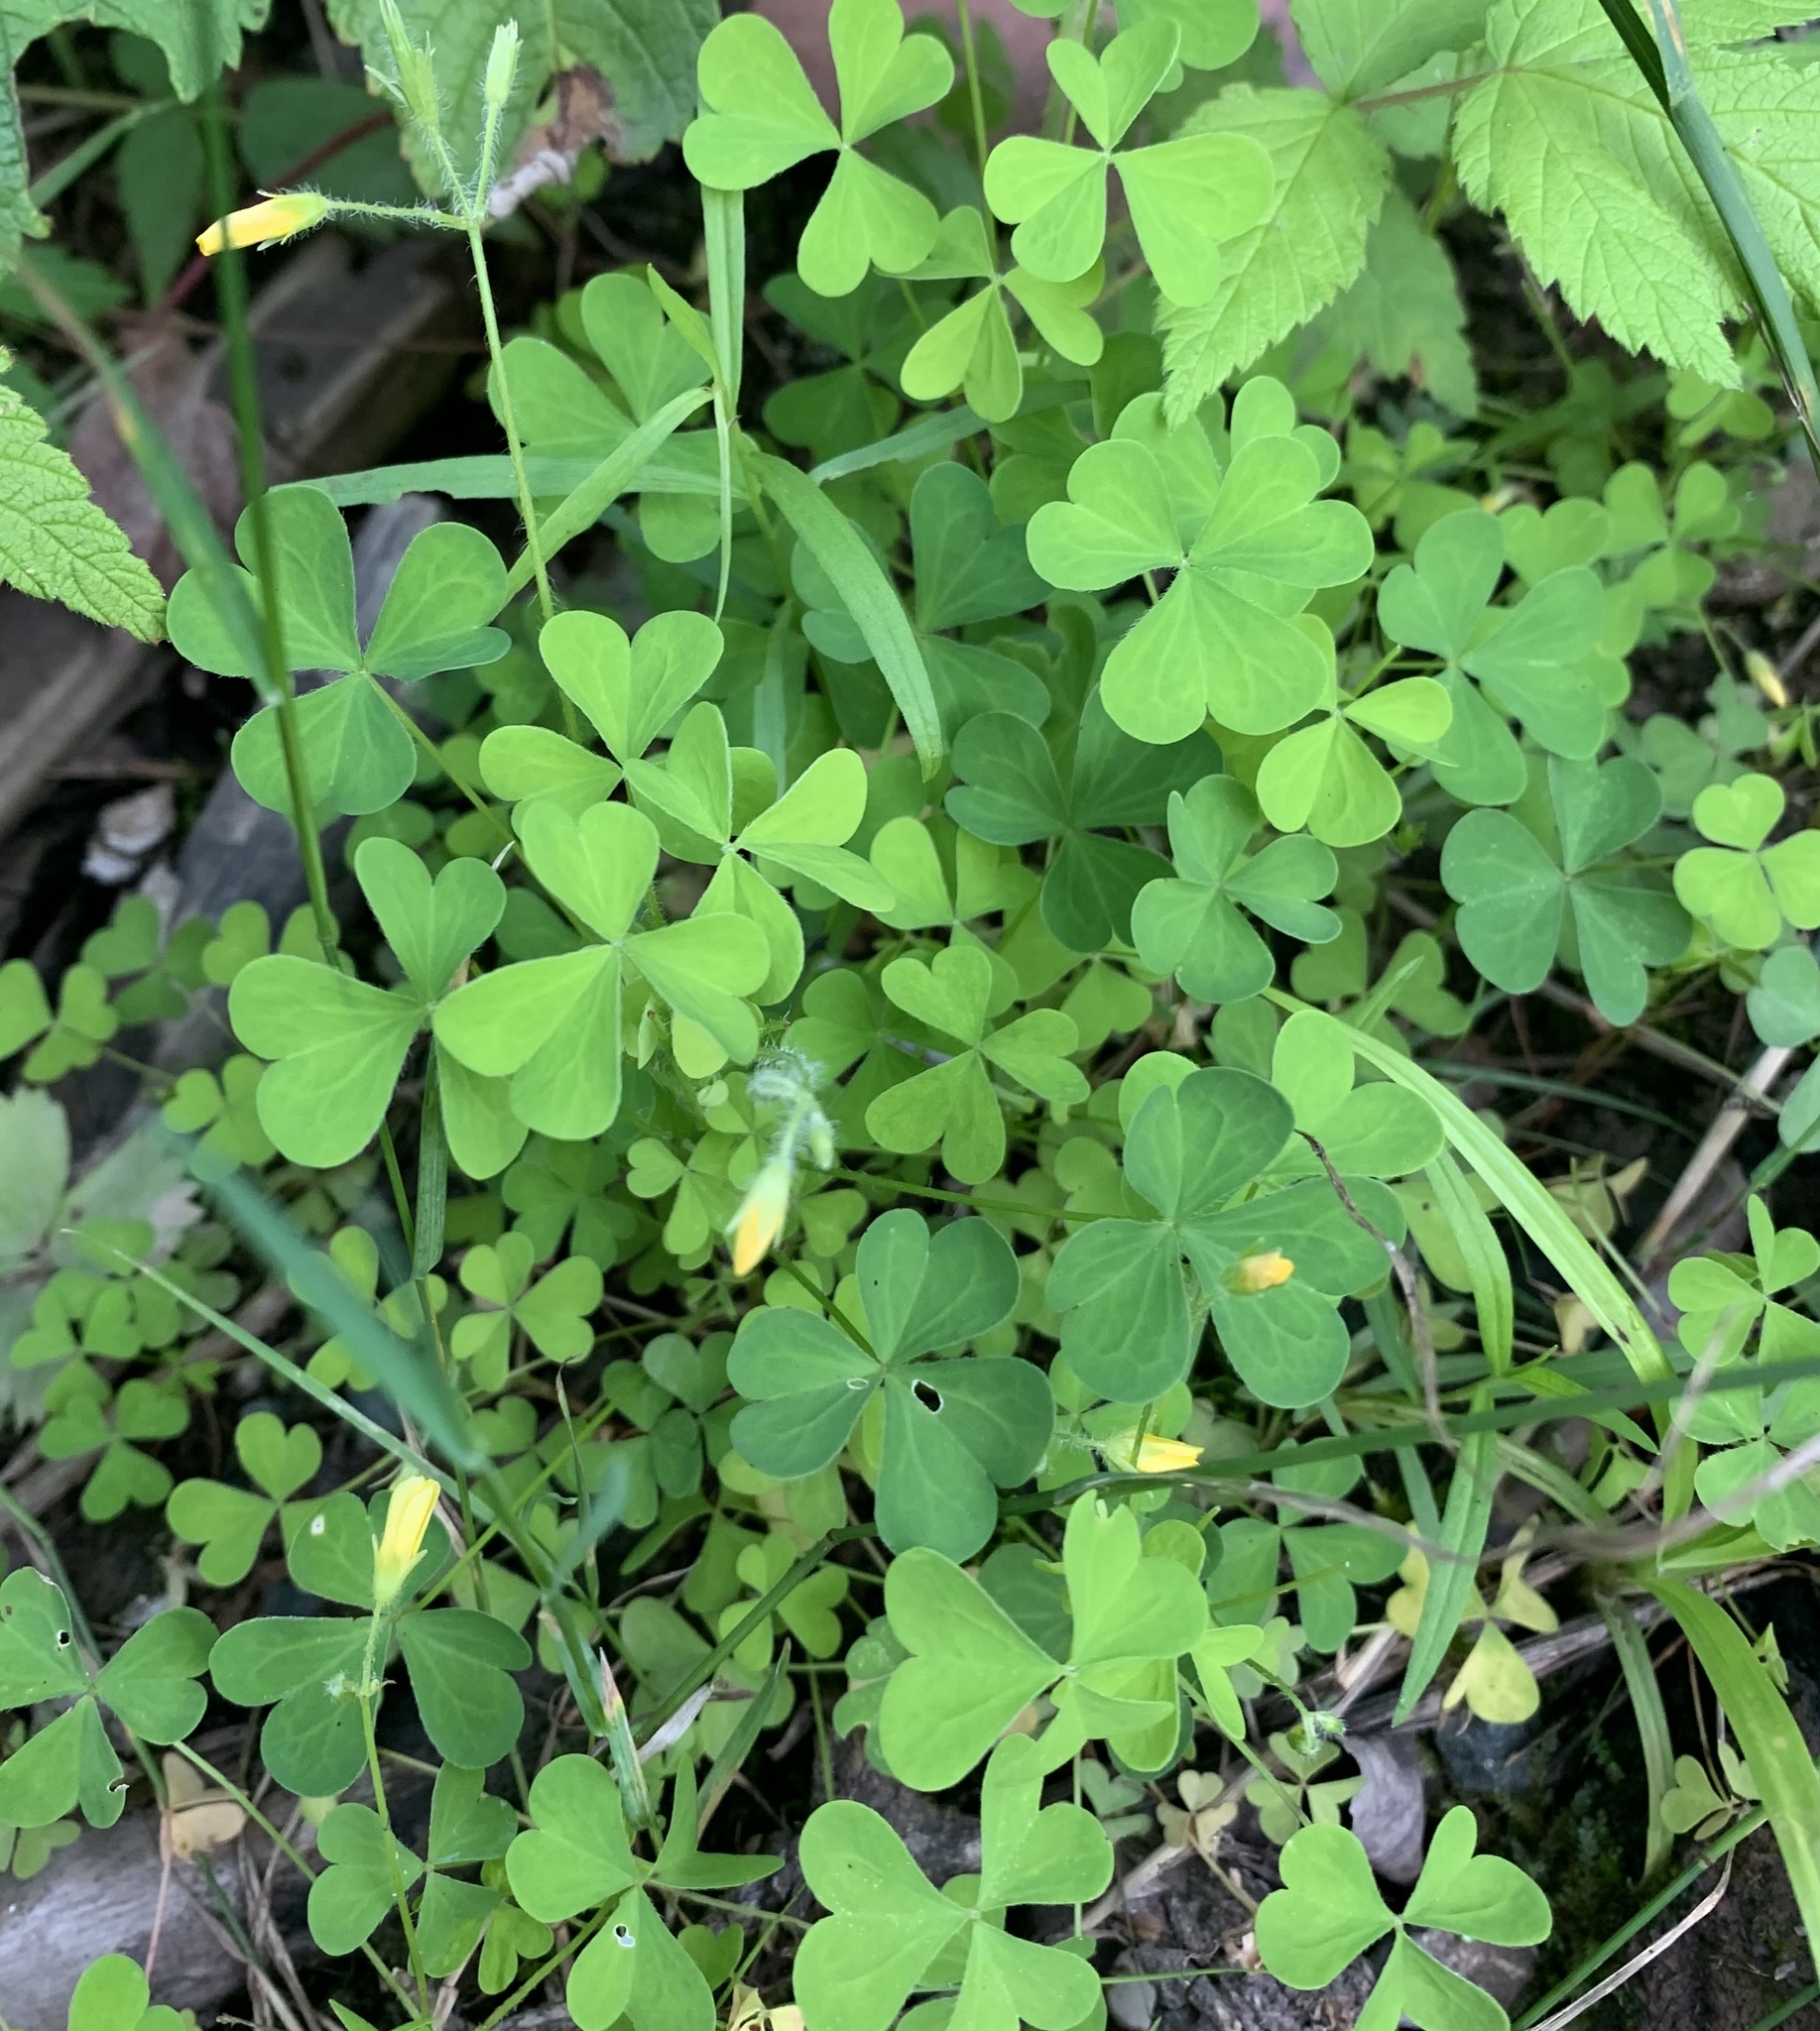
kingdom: Plantae
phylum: Tracheophyta
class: Magnoliopsida
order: Oxalidales
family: Oxalidaceae
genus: Oxalis
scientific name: Oxalis stricta
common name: Upright yellow-sorrel
